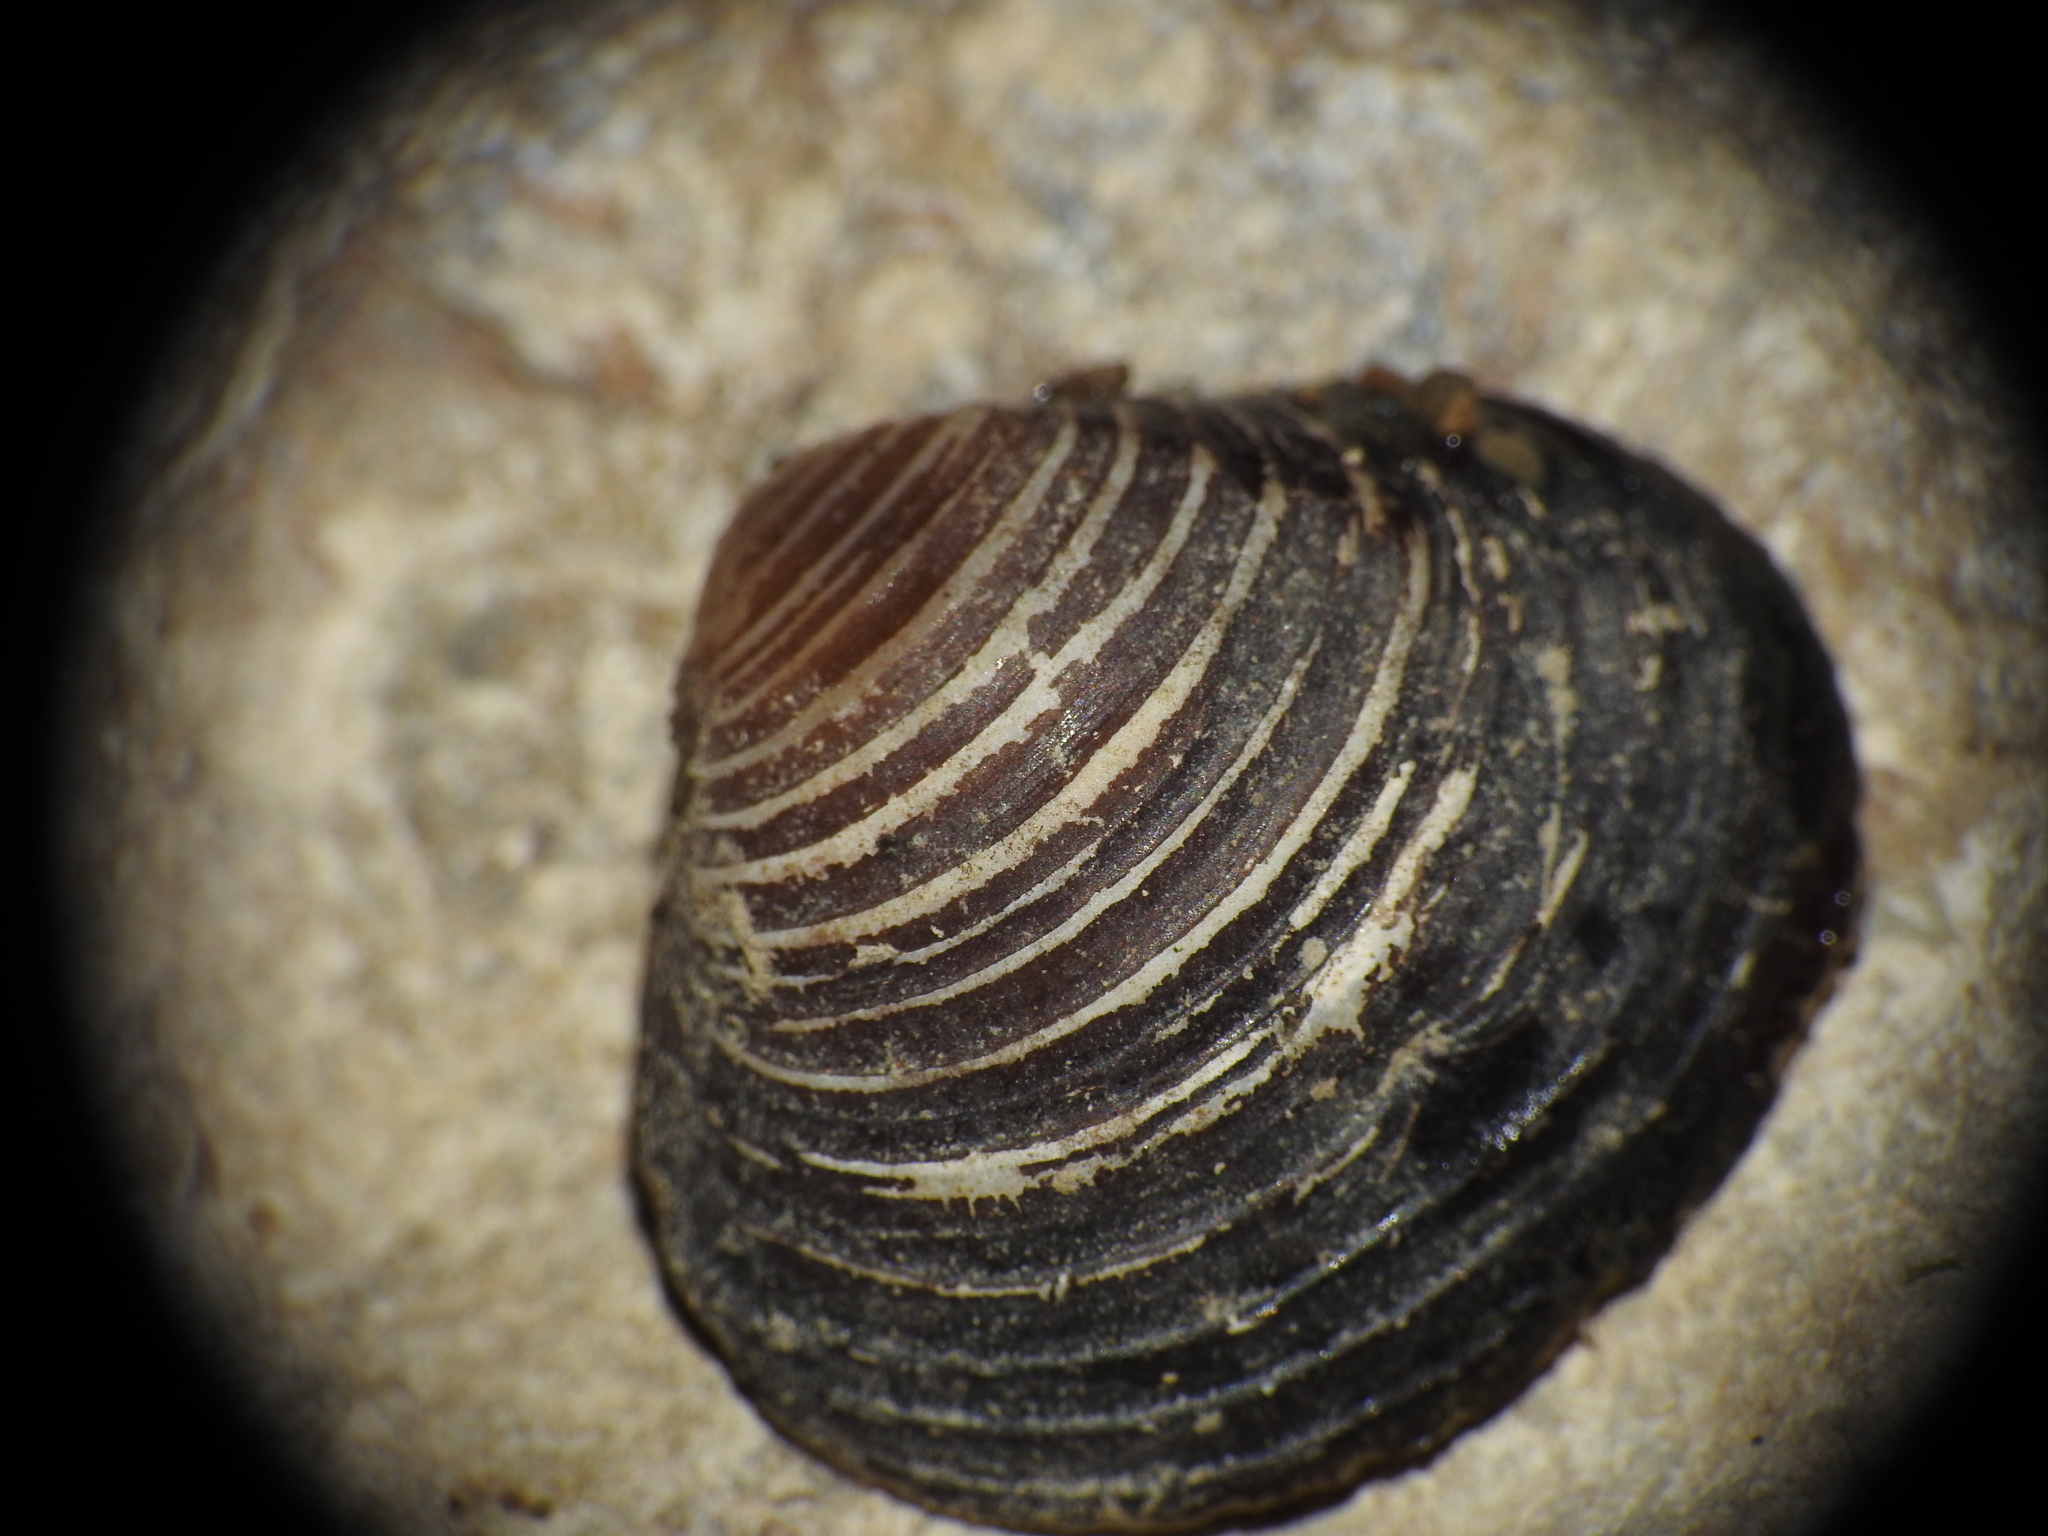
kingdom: Animalia
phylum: Mollusca
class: Bivalvia
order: Venerida
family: Cyrenidae
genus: Corbicula
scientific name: Corbicula fluminea
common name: Asian clam
